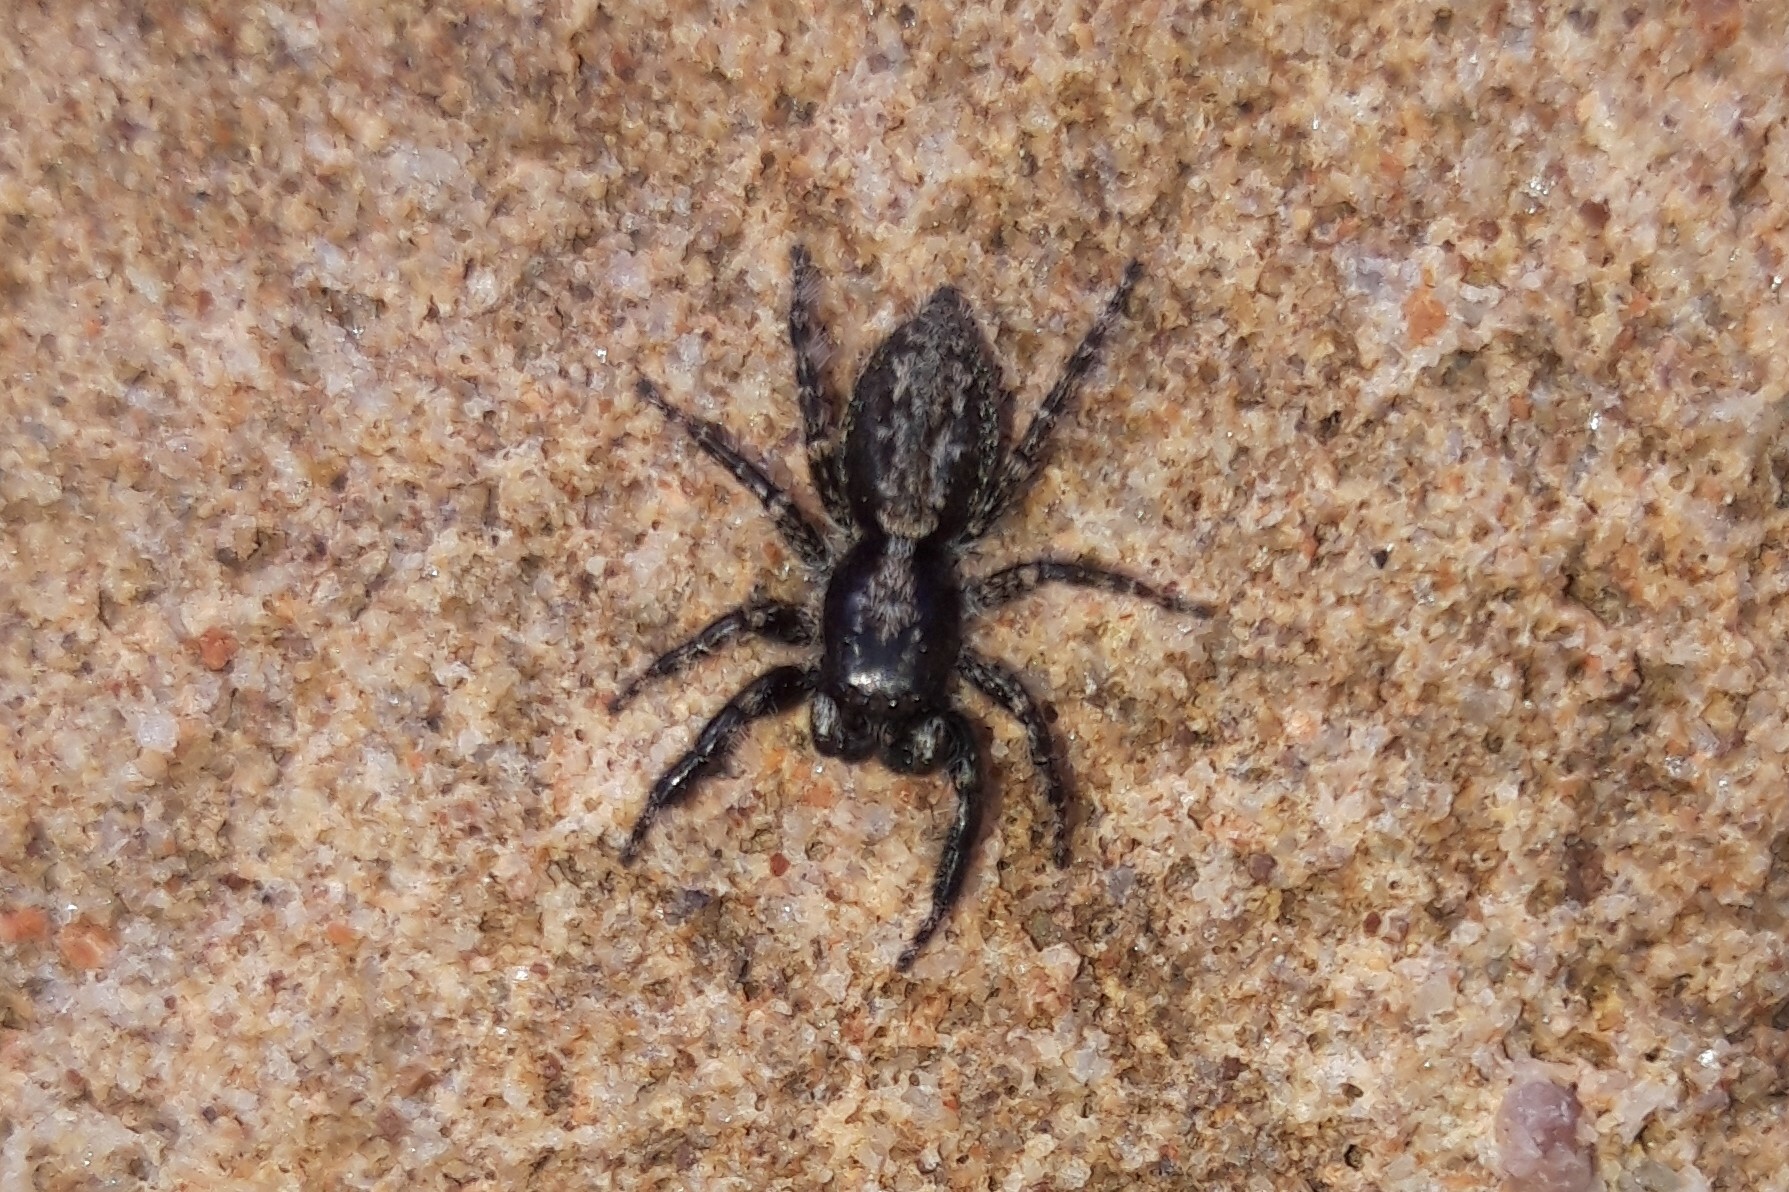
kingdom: Animalia
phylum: Arthropoda
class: Arachnida
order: Araneae
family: Salticidae
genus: Menemerus
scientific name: Menemerus taeniatus
